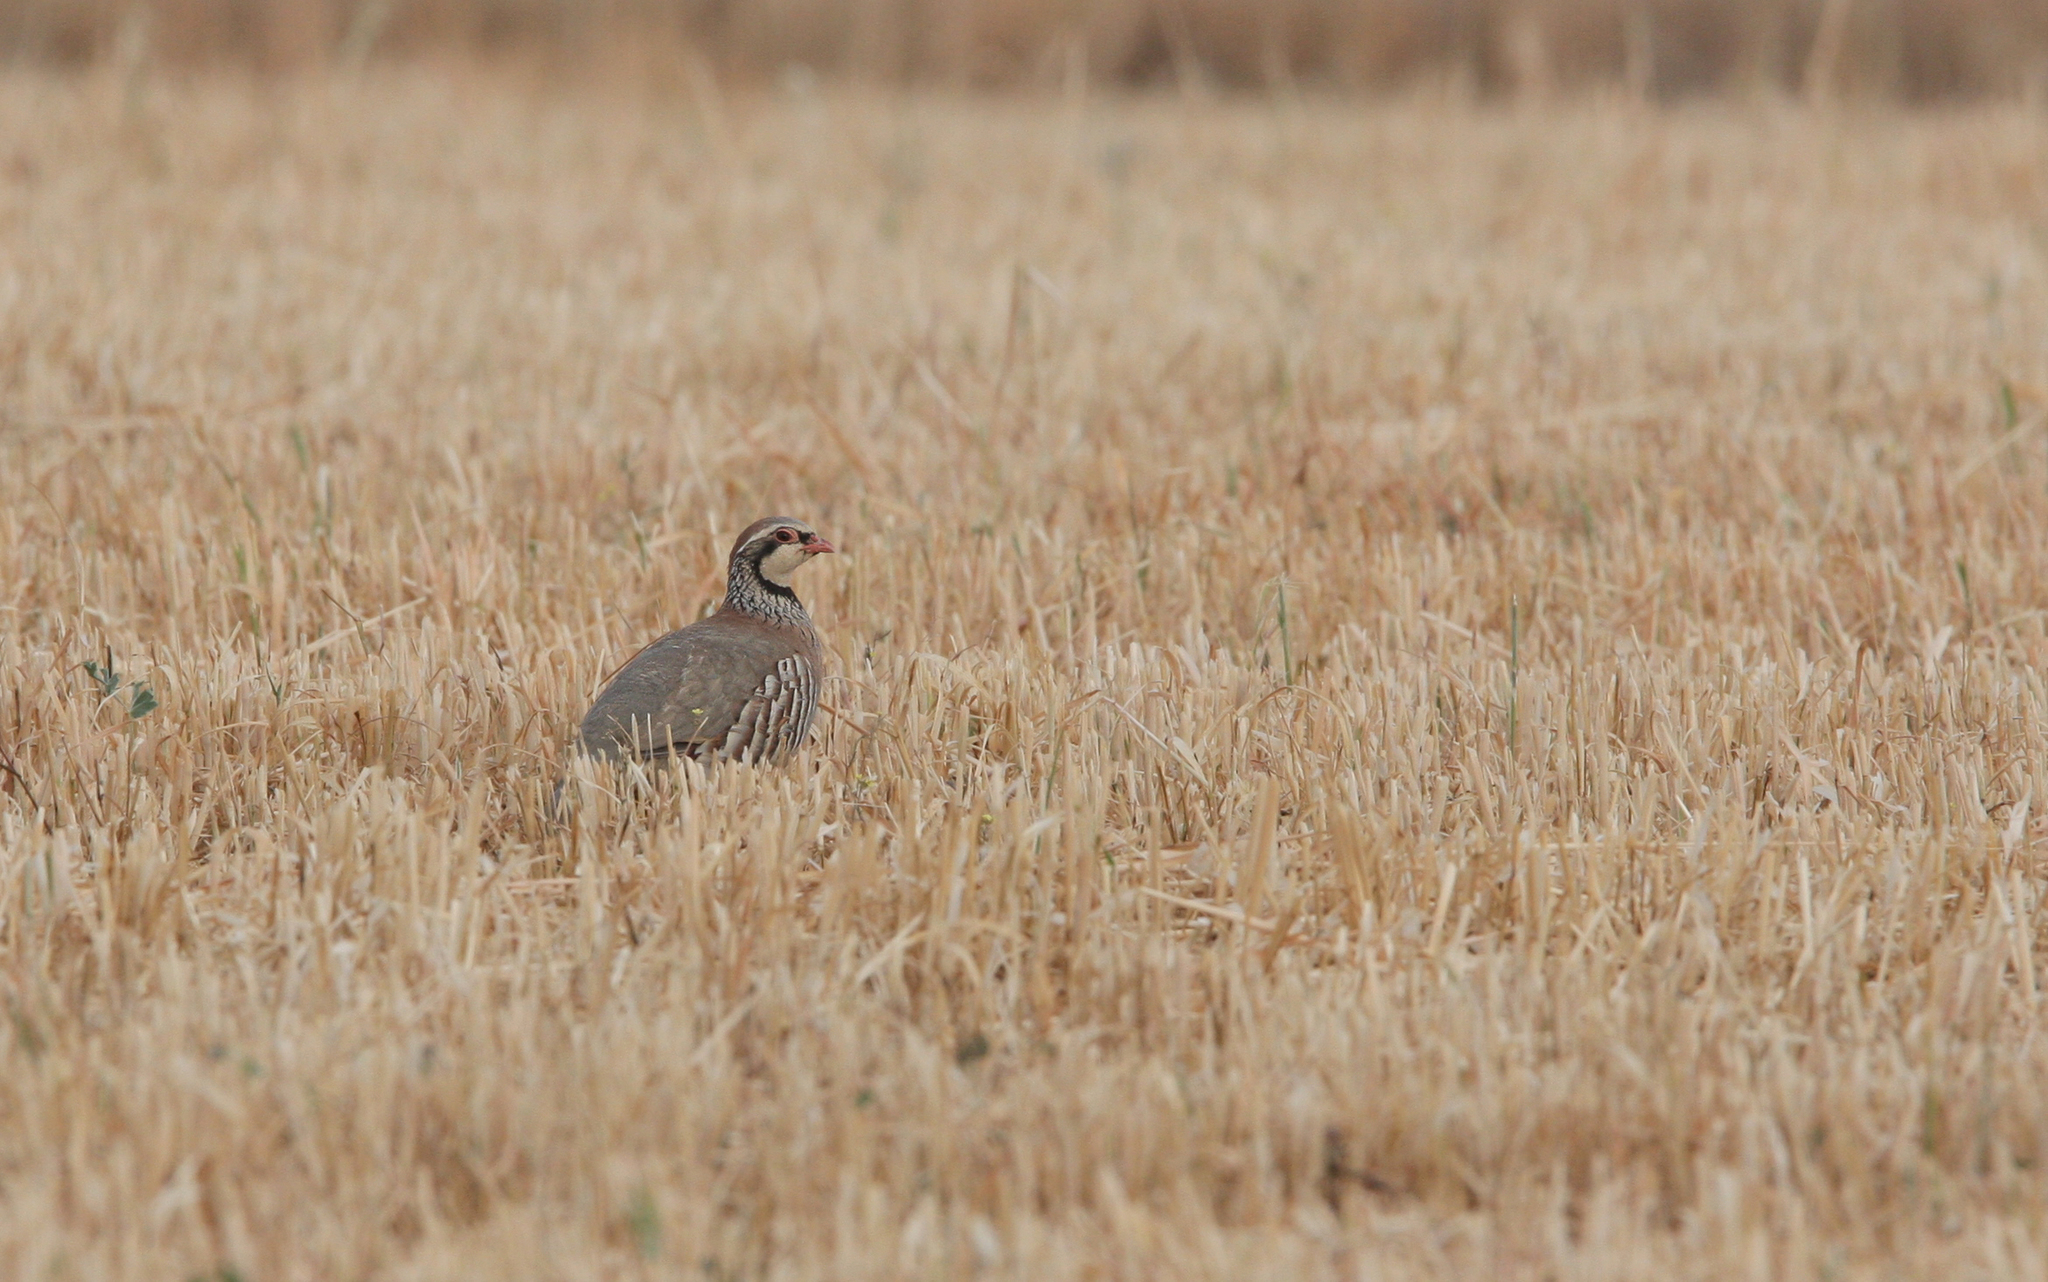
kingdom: Animalia
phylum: Chordata
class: Aves
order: Galliformes
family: Phasianidae
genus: Alectoris
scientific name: Alectoris rufa
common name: Red-legged partridge
